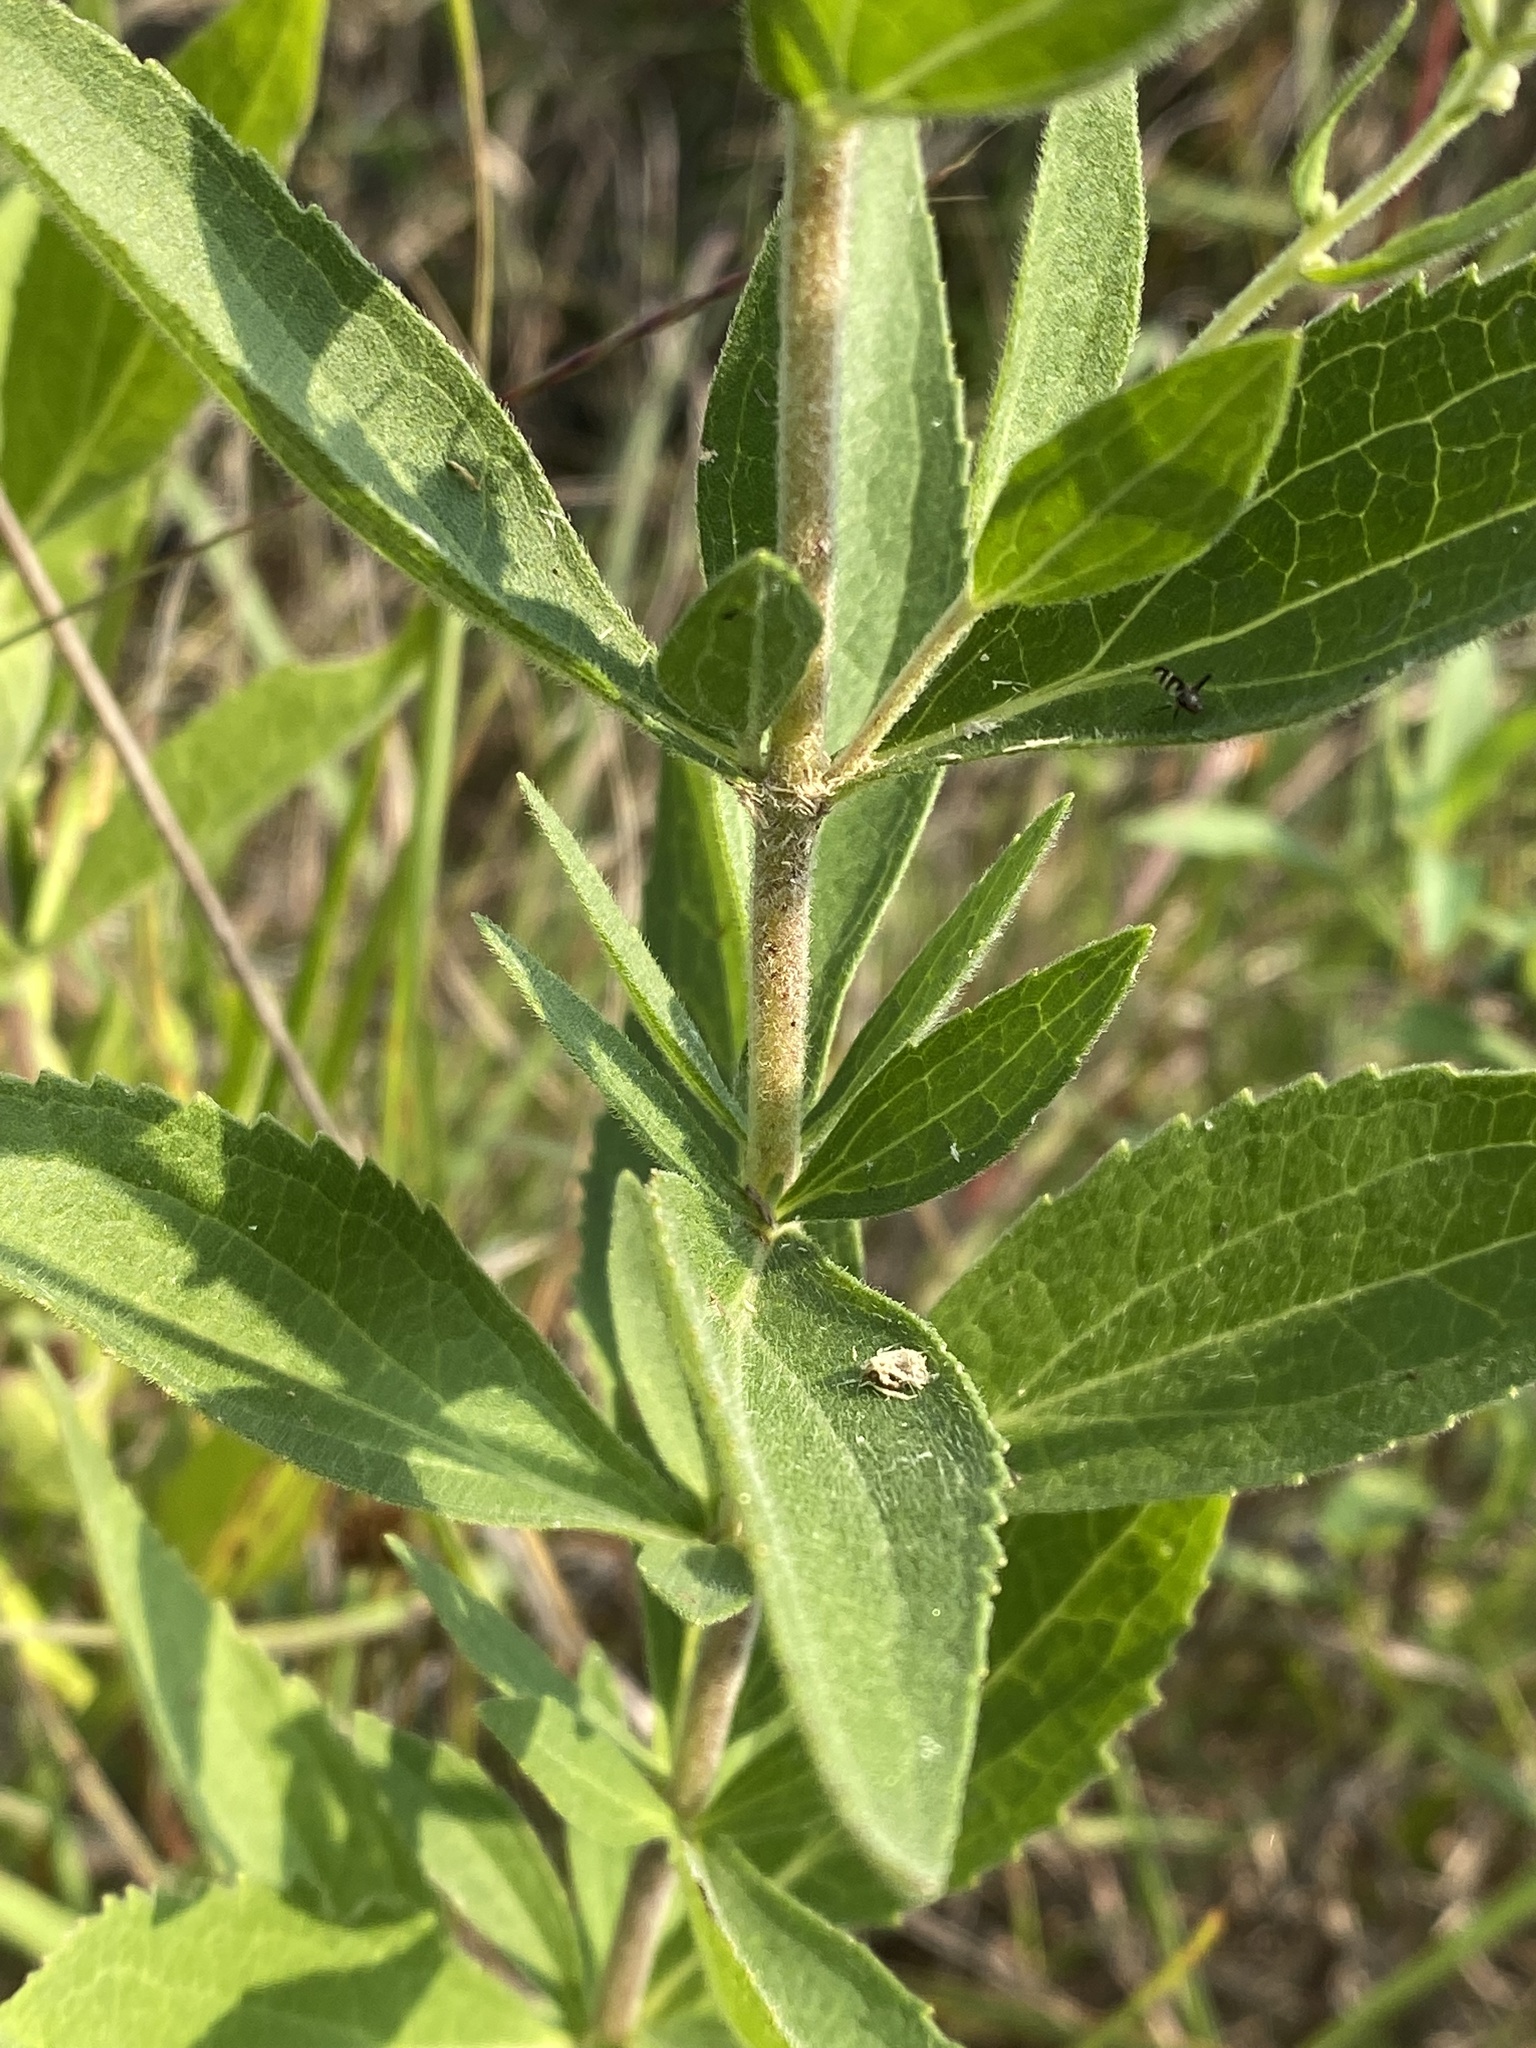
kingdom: Plantae
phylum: Tracheophyta
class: Magnoliopsida
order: Asterales
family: Asteraceae
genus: Eupatorium
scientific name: Eupatorium altissimum
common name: Tall thoroughwort
